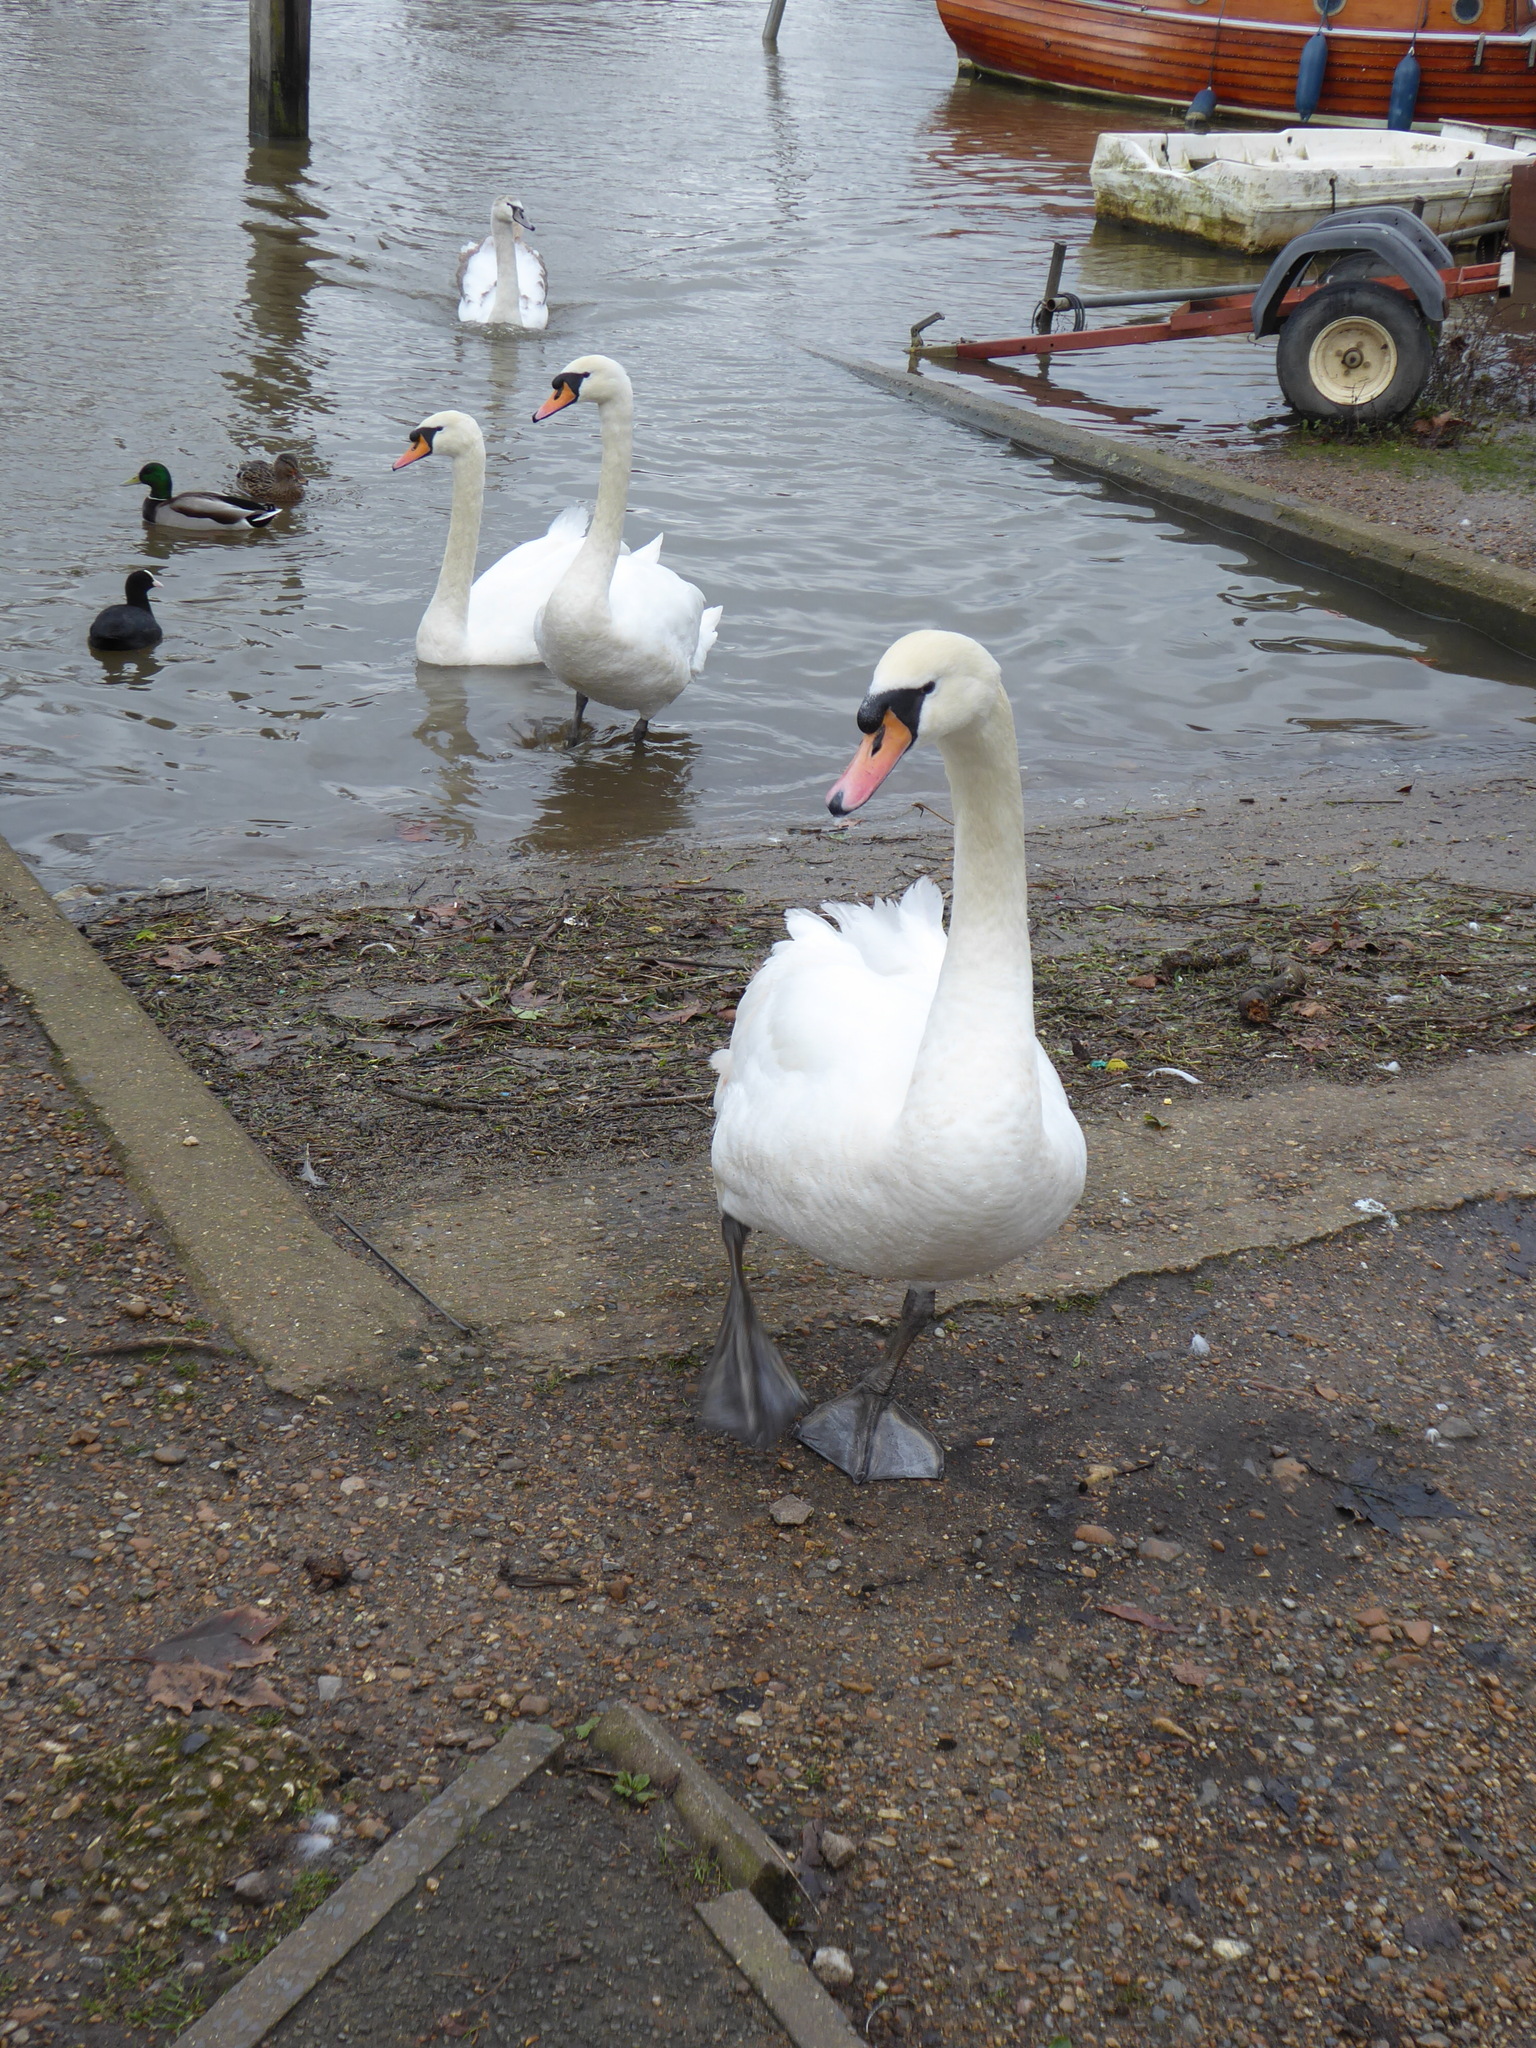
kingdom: Animalia
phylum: Chordata
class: Aves
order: Anseriformes
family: Anatidae
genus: Cygnus
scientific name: Cygnus olor
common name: Mute swan
